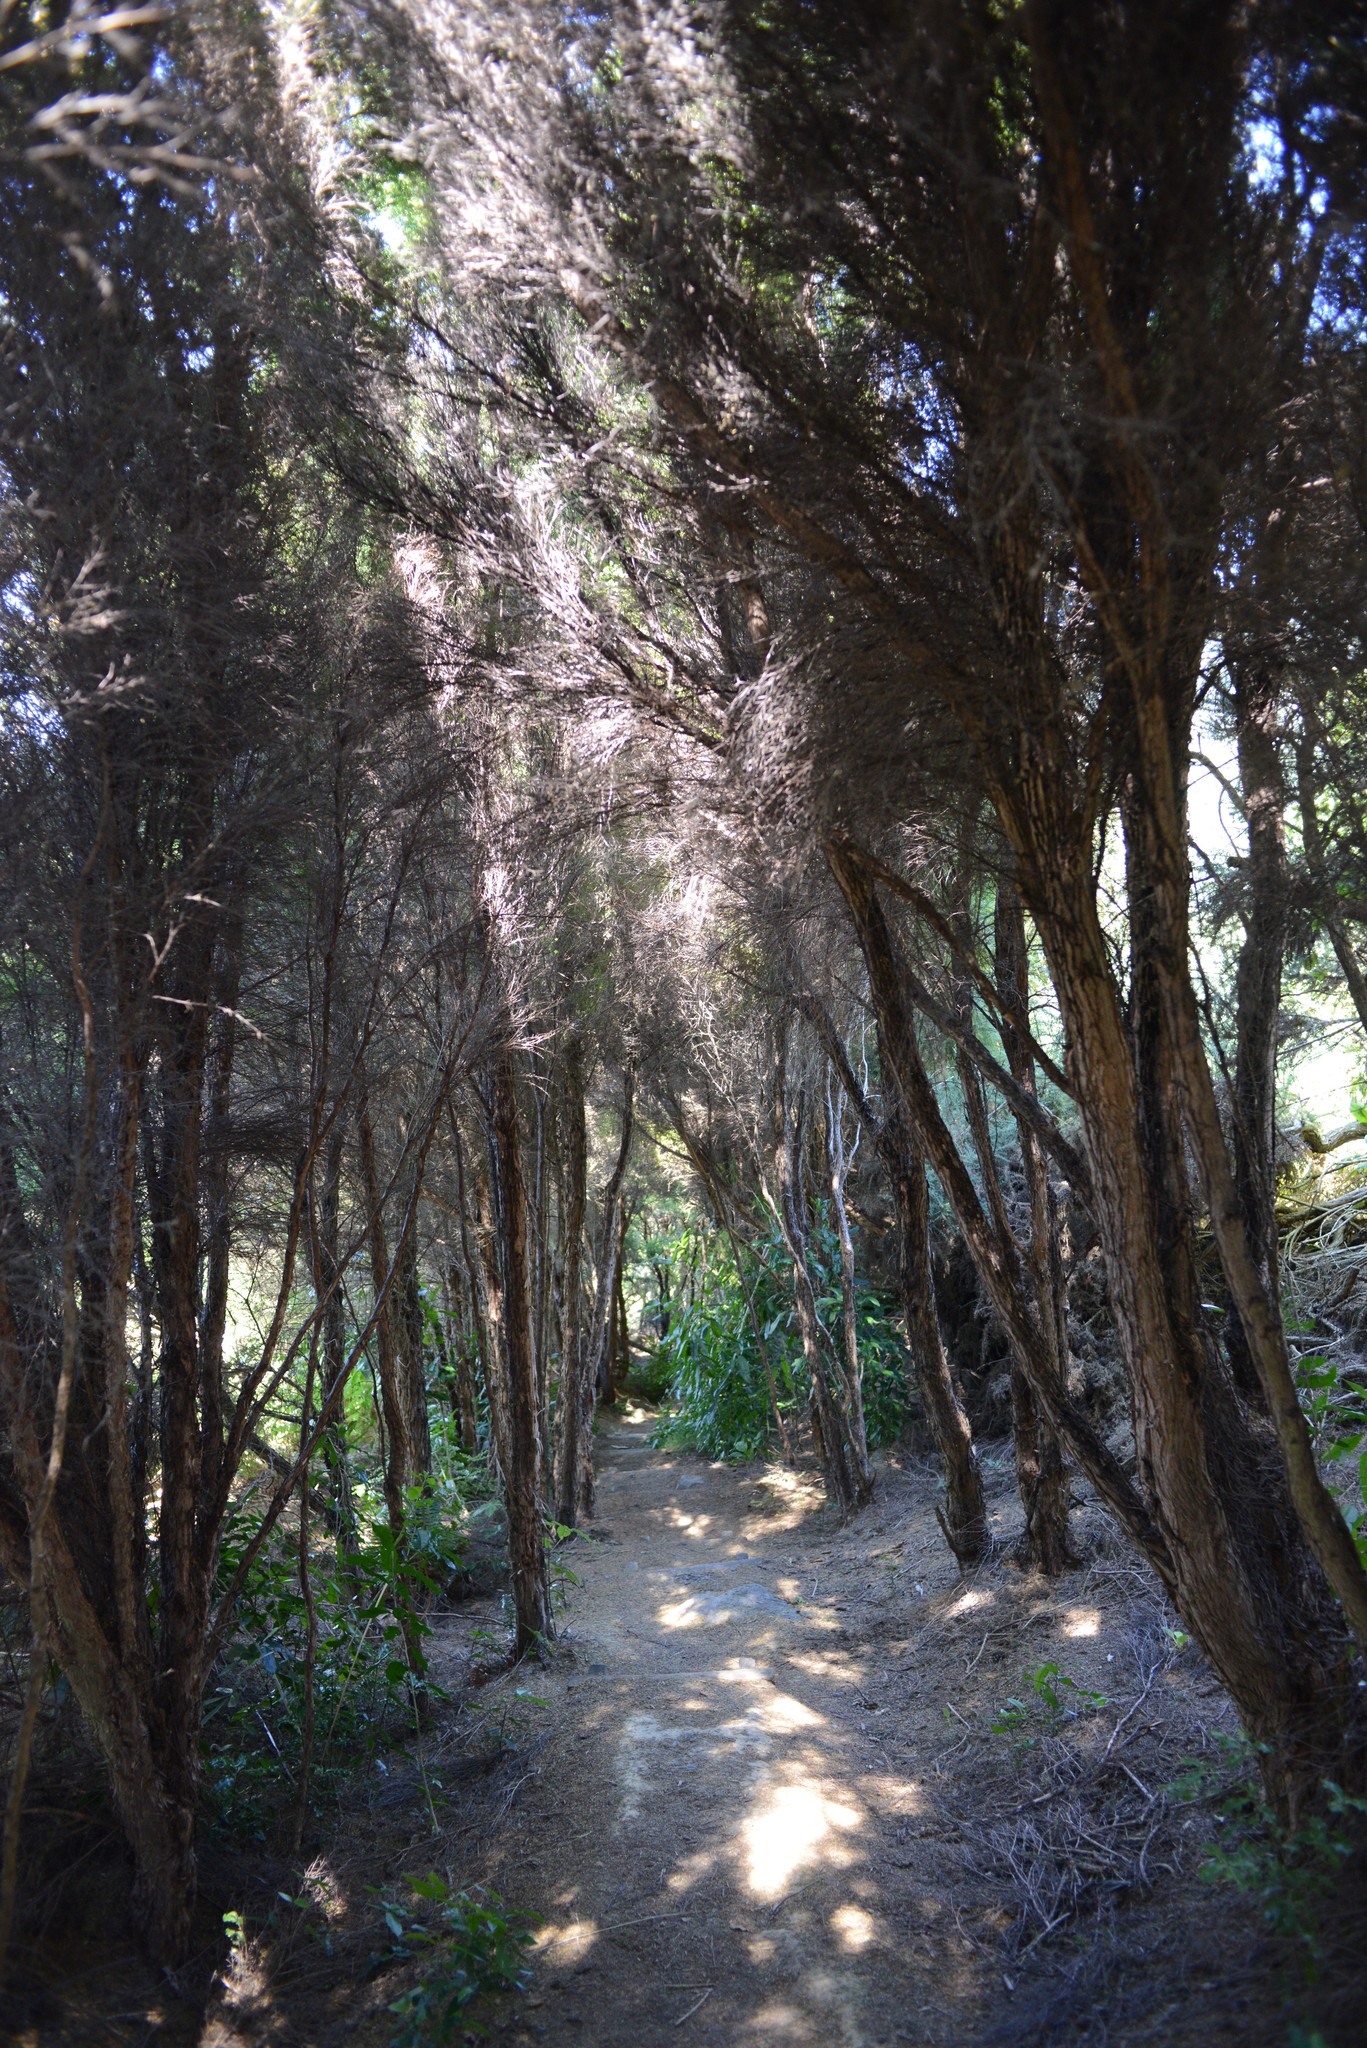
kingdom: Plantae
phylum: Tracheophyta
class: Magnoliopsida
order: Myrtales
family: Myrtaceae
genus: Kunzea
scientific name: Kunzea robusta
